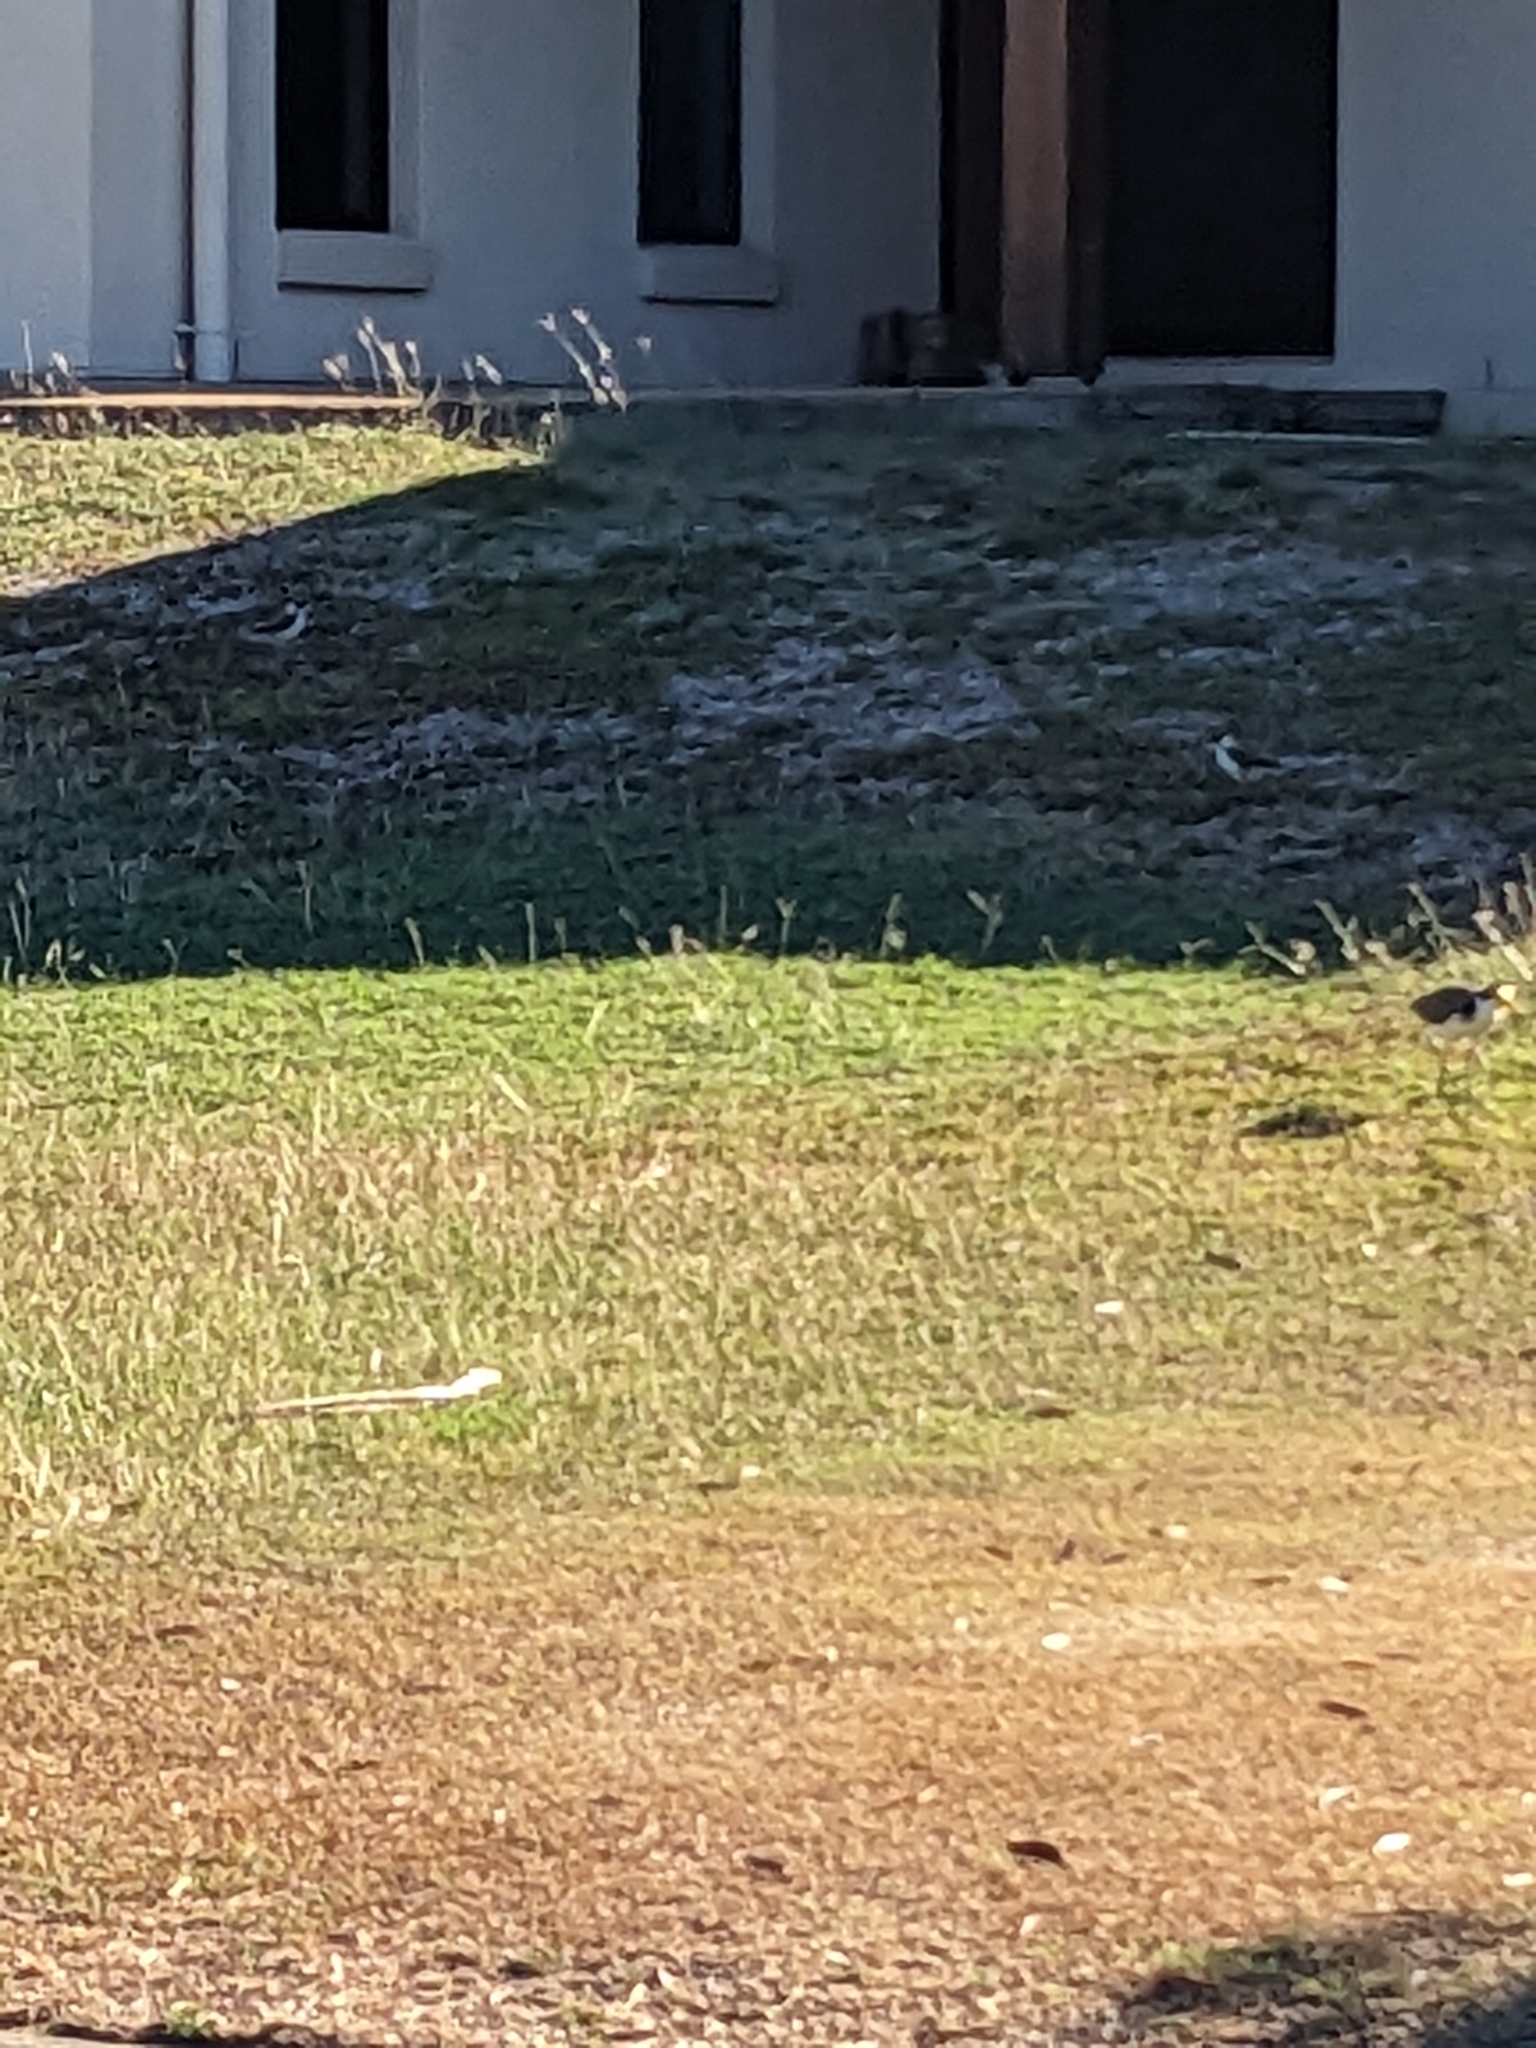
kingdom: Animalia
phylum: Chordata
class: Aves
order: Charadriiformes
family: Charadriidae
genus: Vanellus
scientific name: Vanellus miles
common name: Masked lapwing
